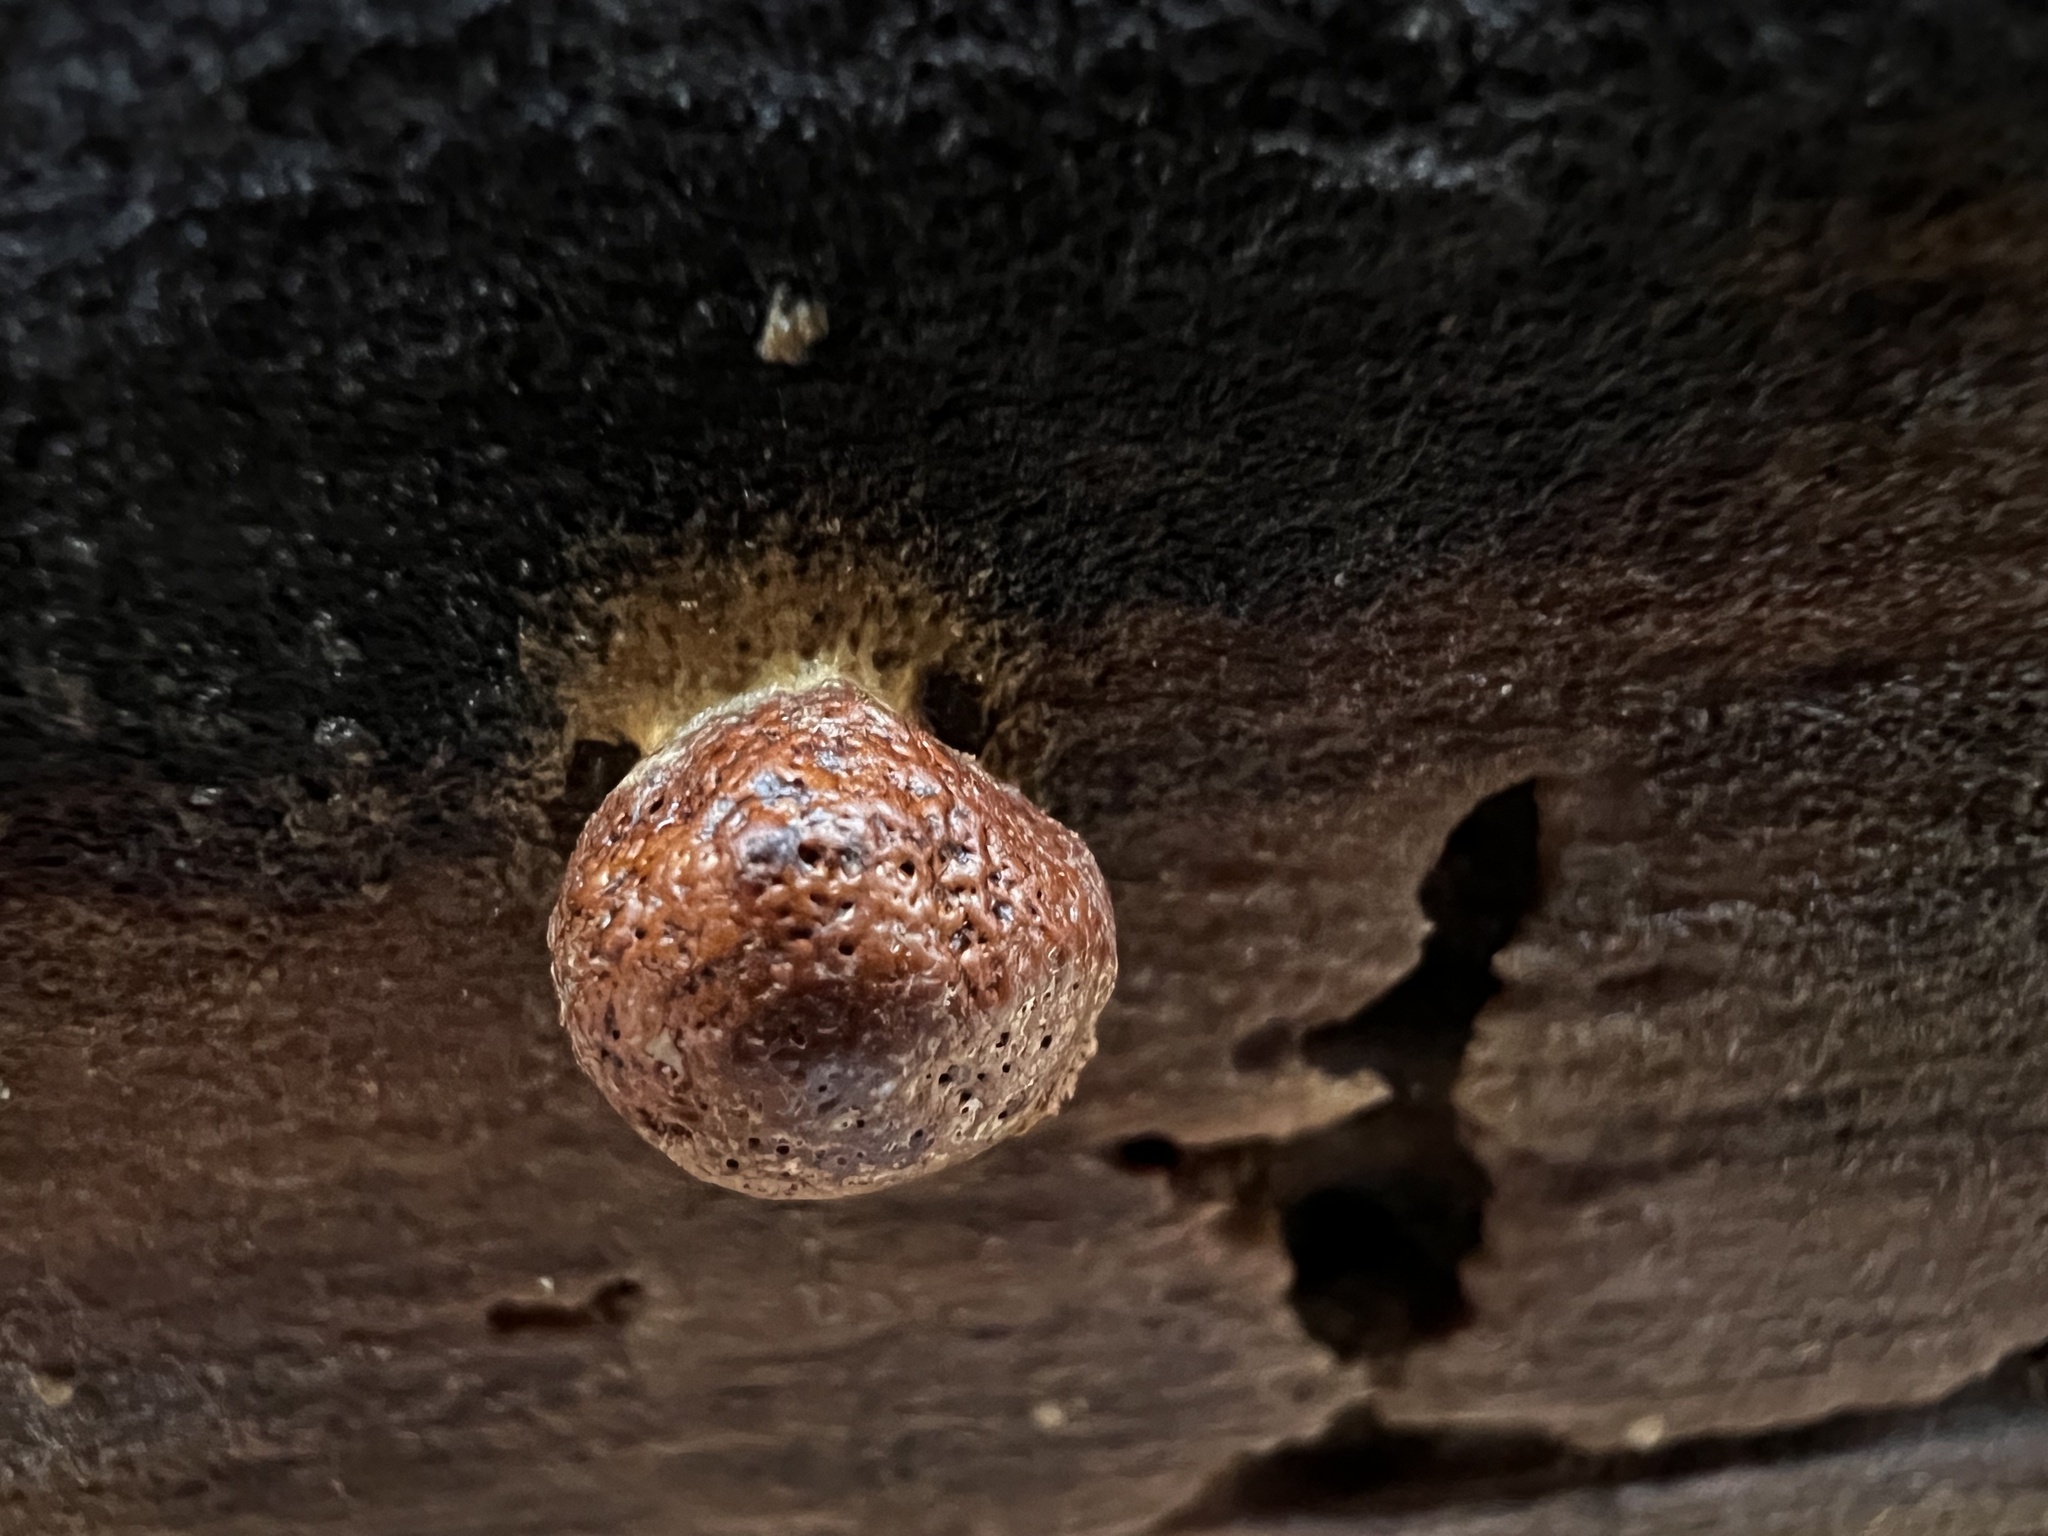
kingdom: Protozoa
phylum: Mycetozoa
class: Myxomycetes
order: Cribrariales
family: Tubiferaceae
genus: Reticularia
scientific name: Reticularia splendens
